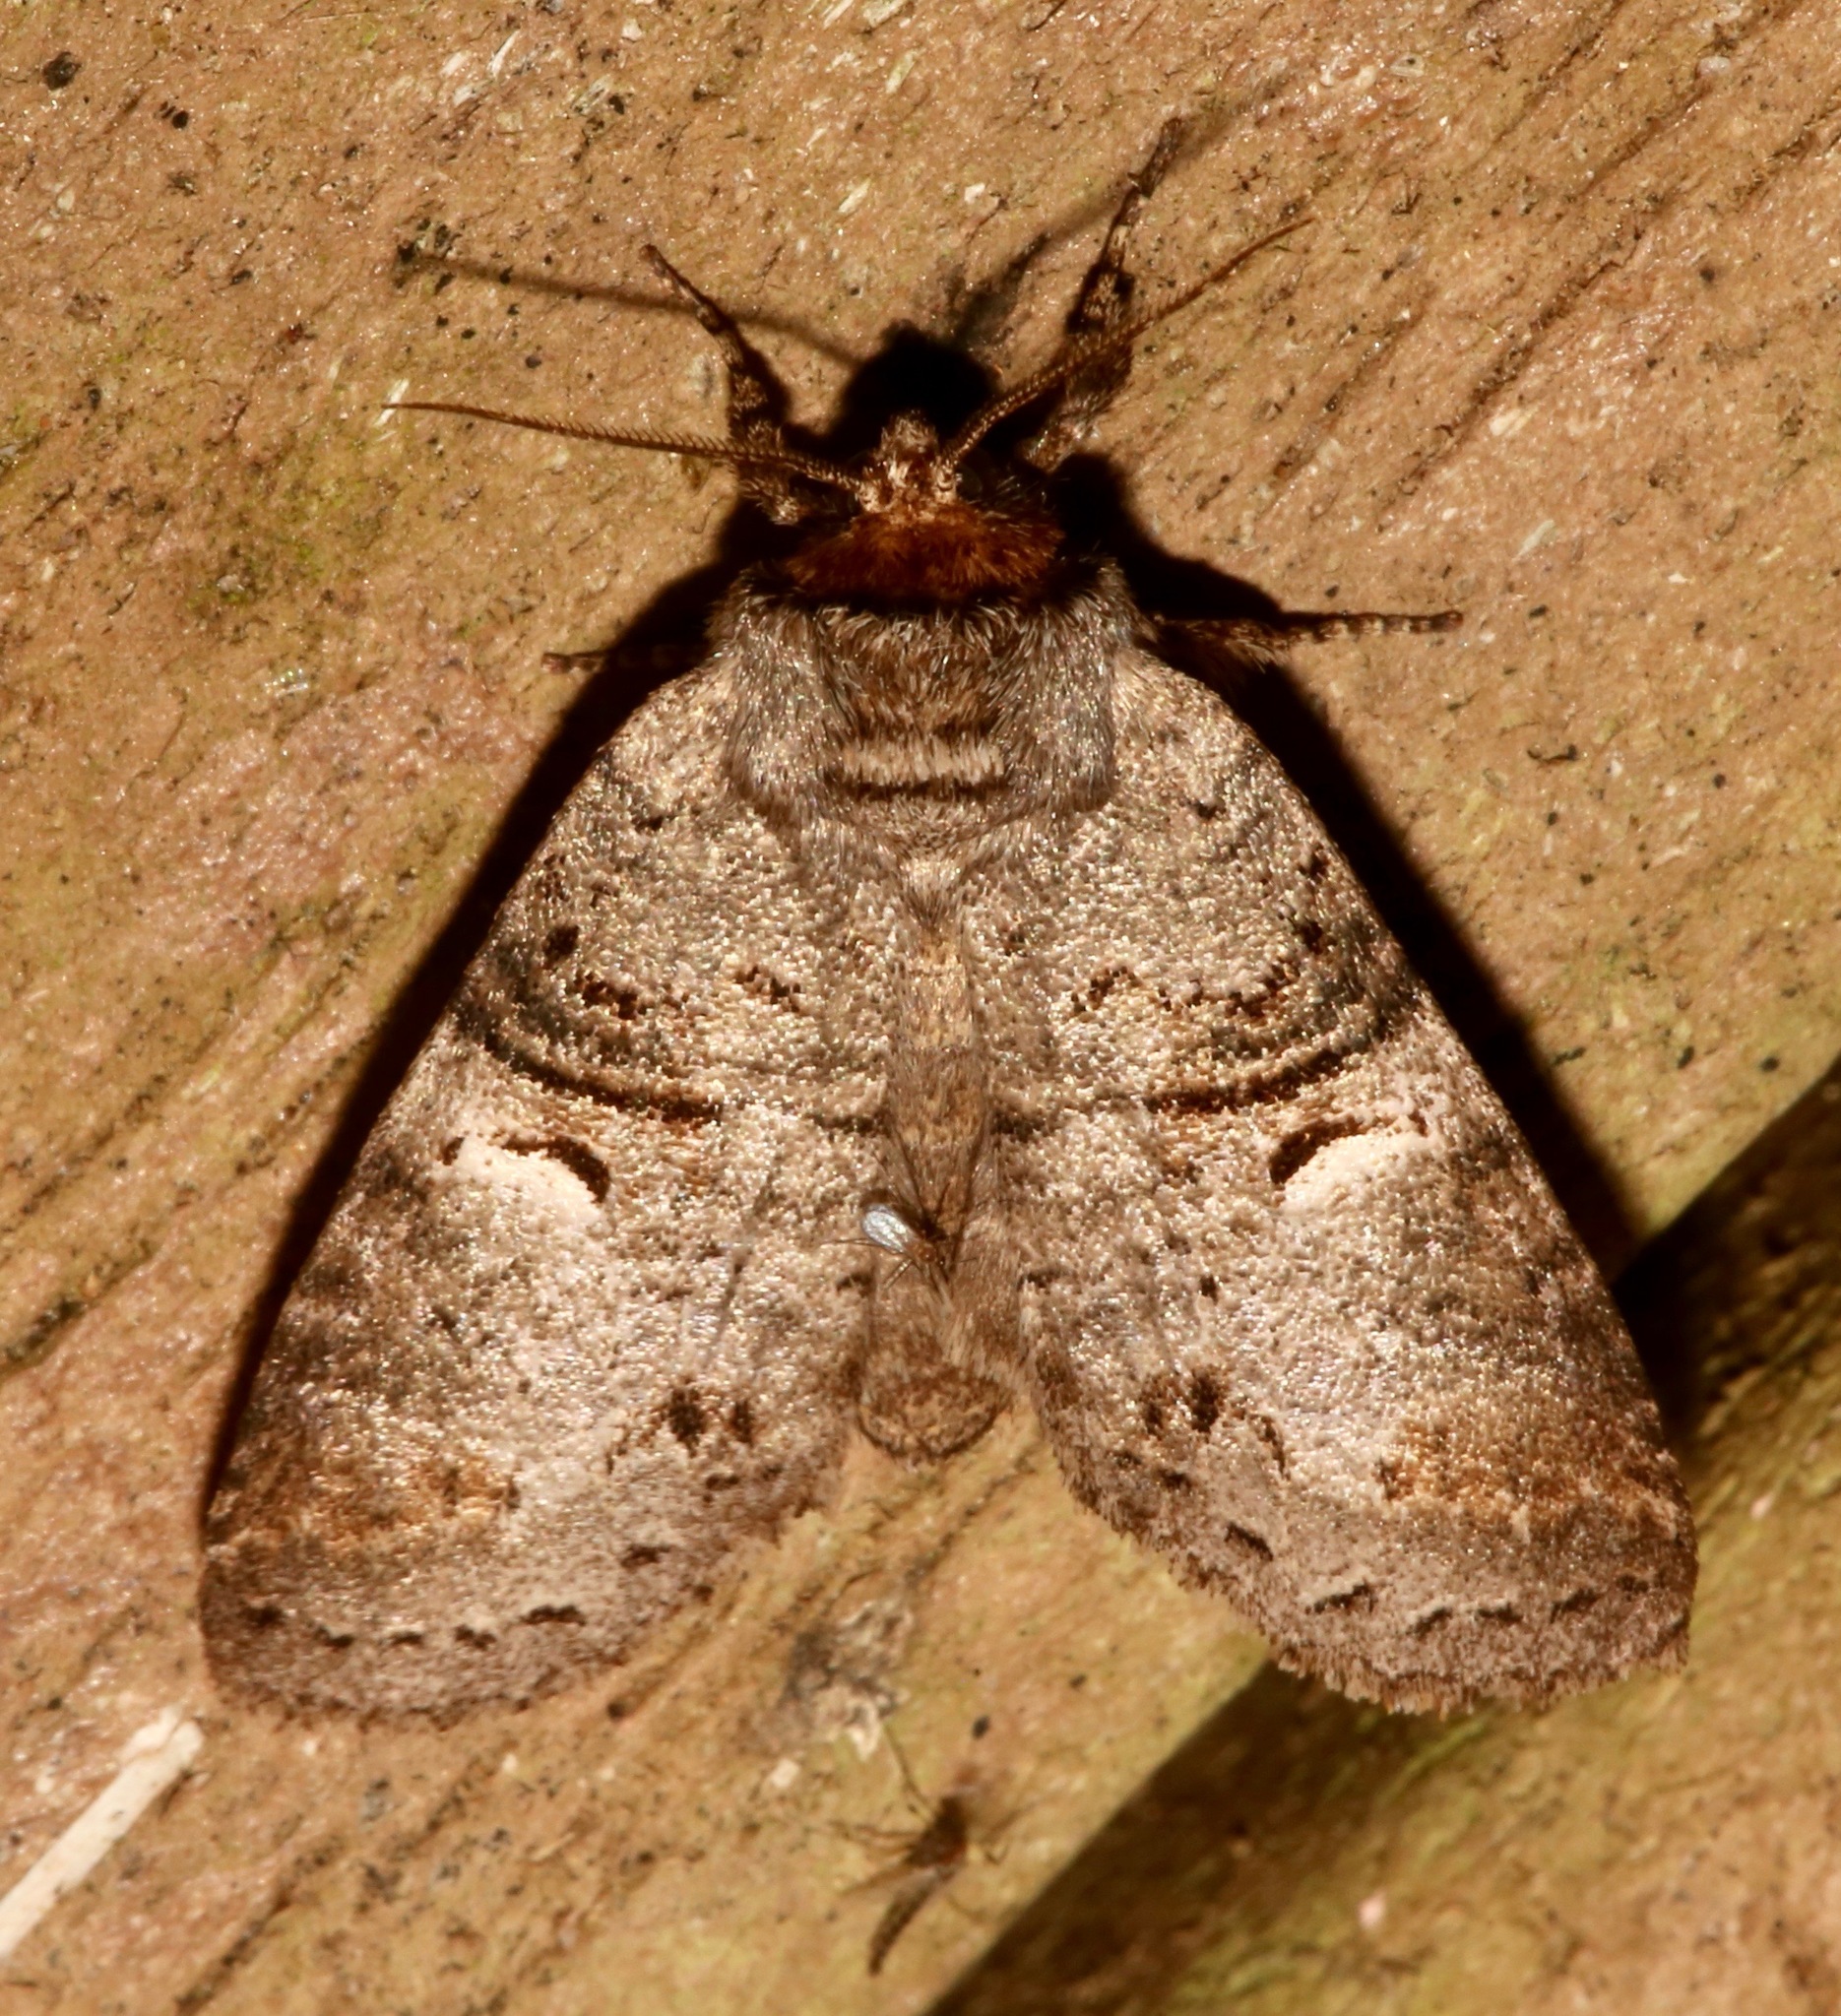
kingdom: Animalia
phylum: Arthropoda
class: Insecta
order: Lepidoptera
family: Notodontidae
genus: Ellida
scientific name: Ellida caniplaga
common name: Linden prominent
